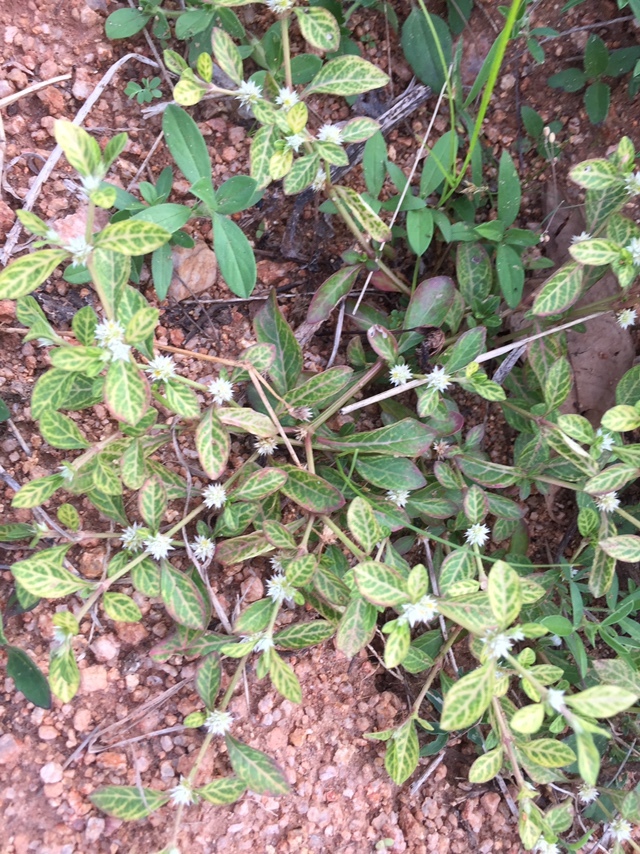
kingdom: Viruses
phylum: Cressdnaviricota
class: Repensiviricetes
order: Geplafuvirales
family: Geminiviridae
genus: Begomovirus
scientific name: Begomovirus Alternanthera yellow vein virus
